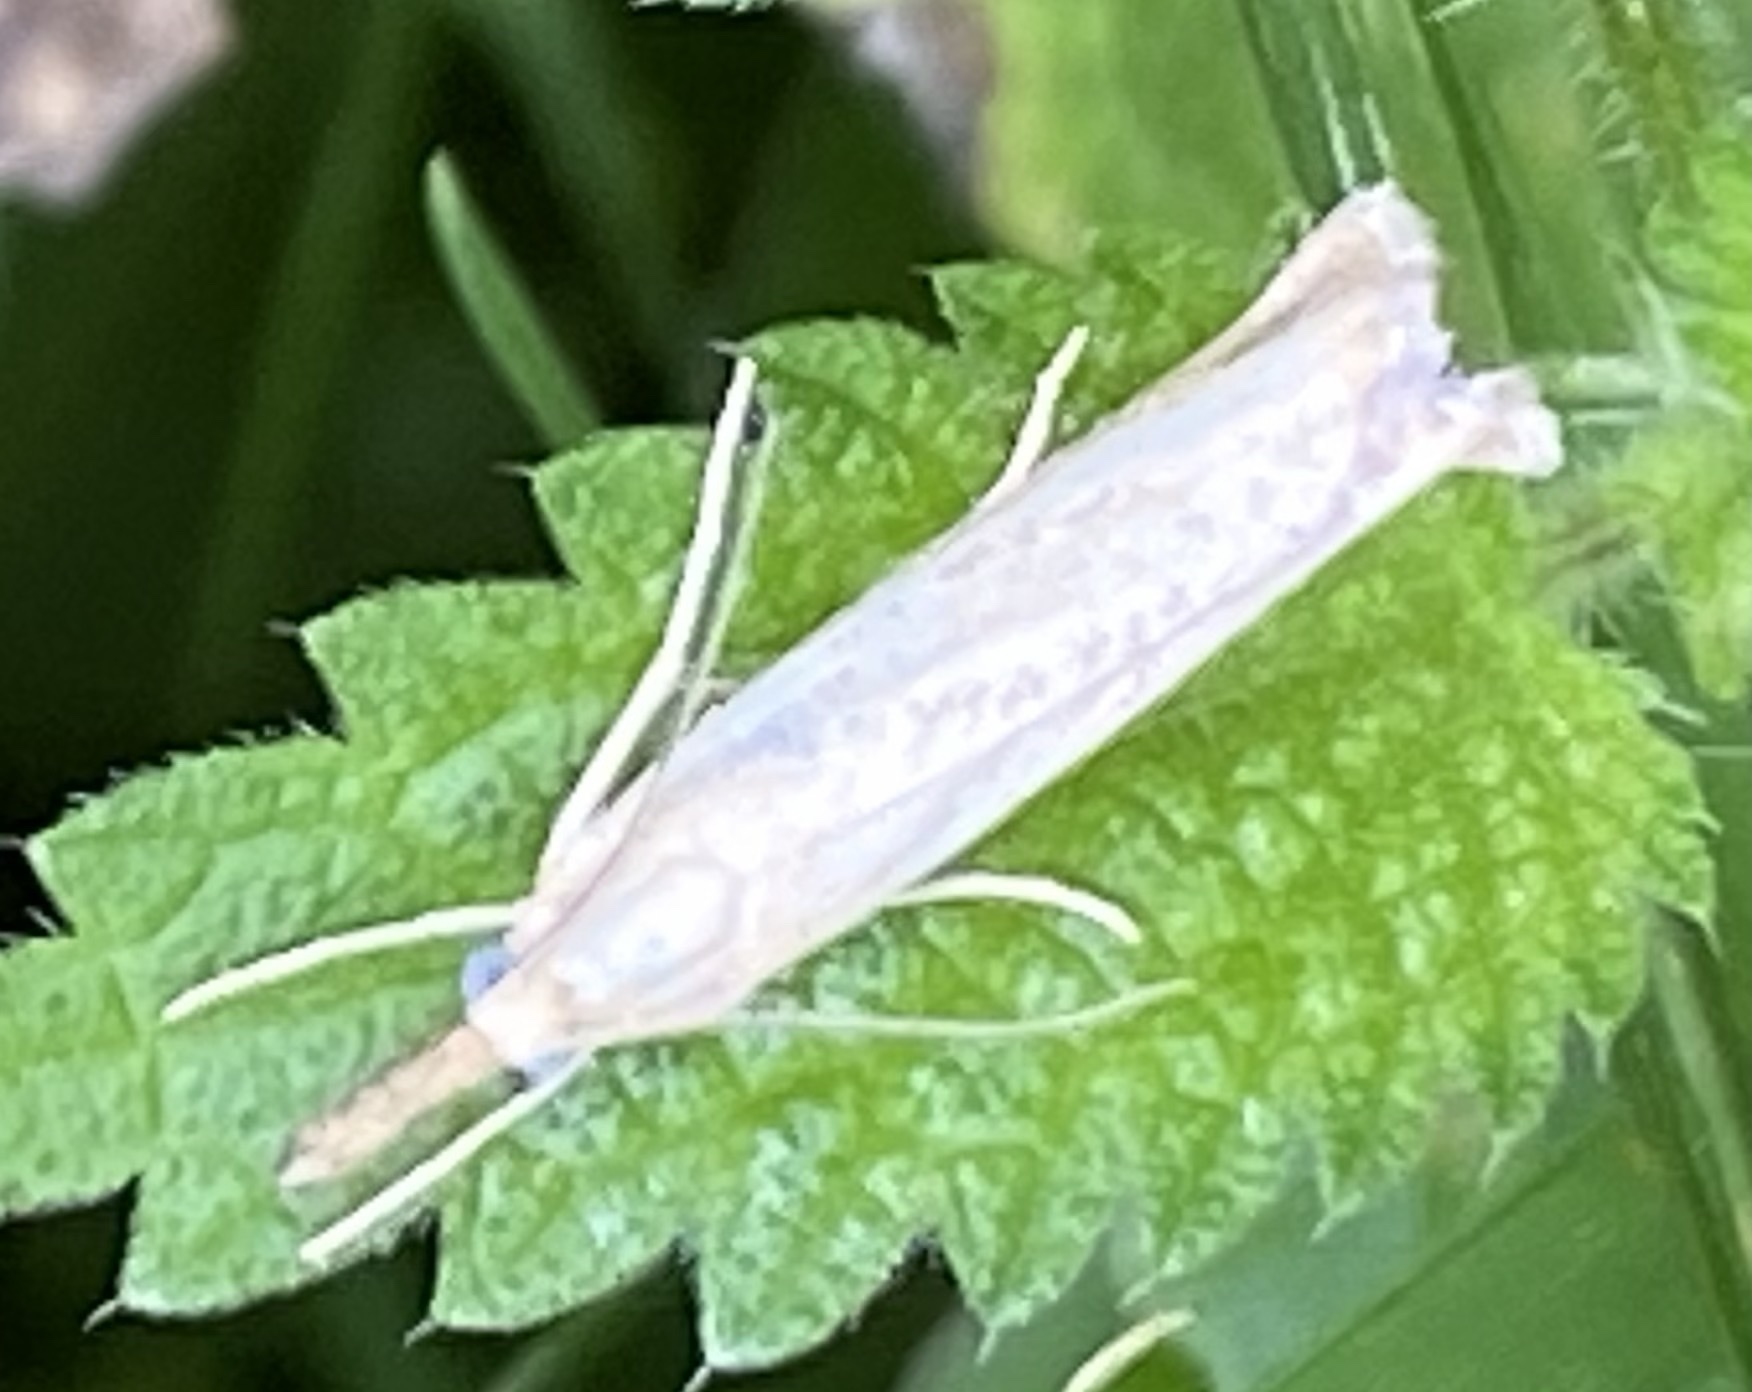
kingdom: Animalia
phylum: Arthropoda
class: Insecta
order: Lepidoptera
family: Crambidae
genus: Agriphila
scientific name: Agriphila straminella
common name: Straw grass-veneer
